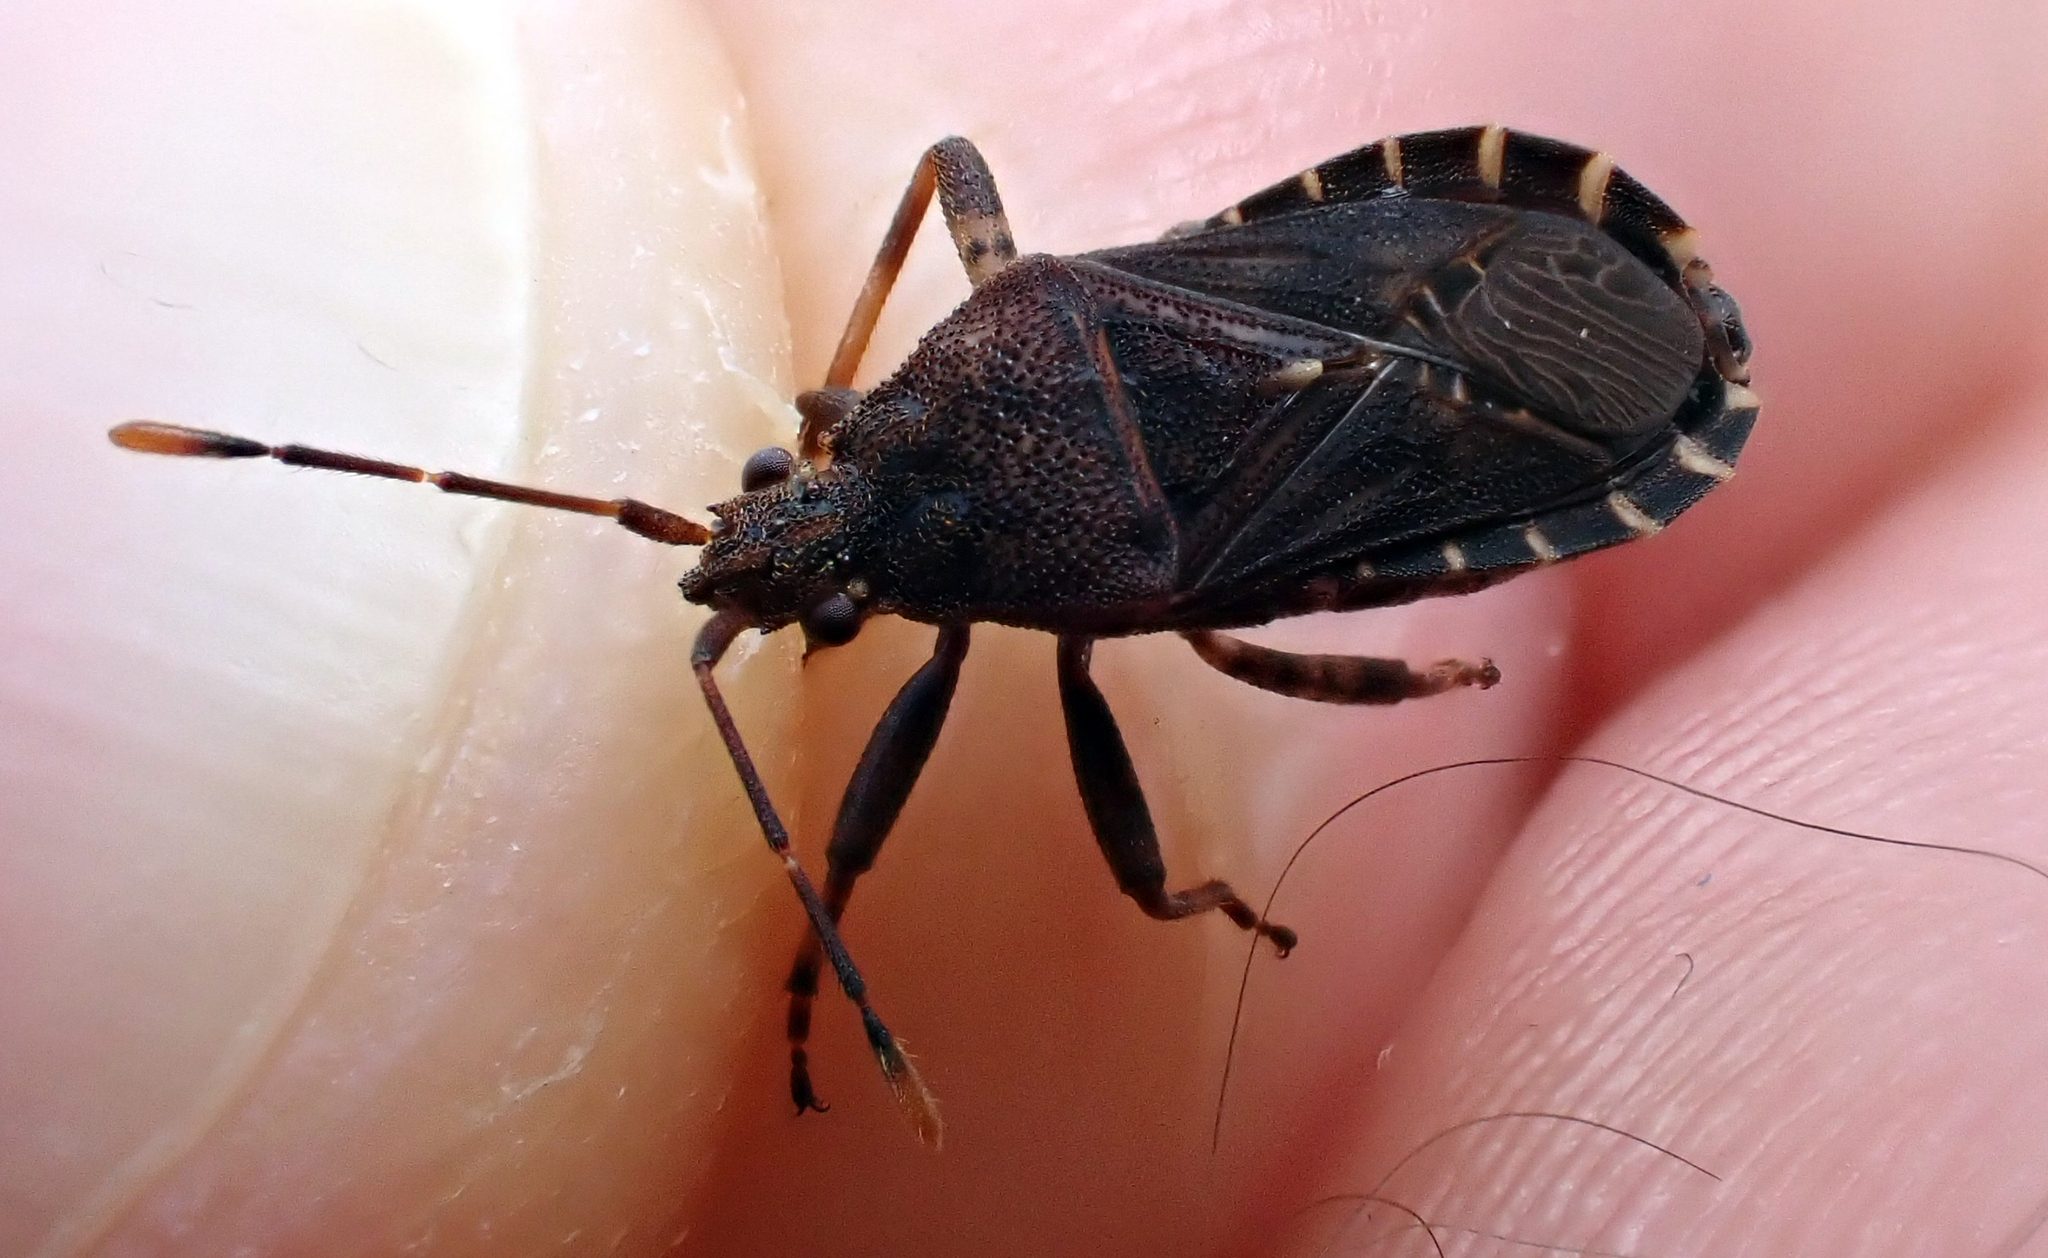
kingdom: Animalia
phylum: Arthropoda
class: Insecta
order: Hemiptera
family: Coreidae
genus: Acantholybas
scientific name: Acantholybas brunneus
